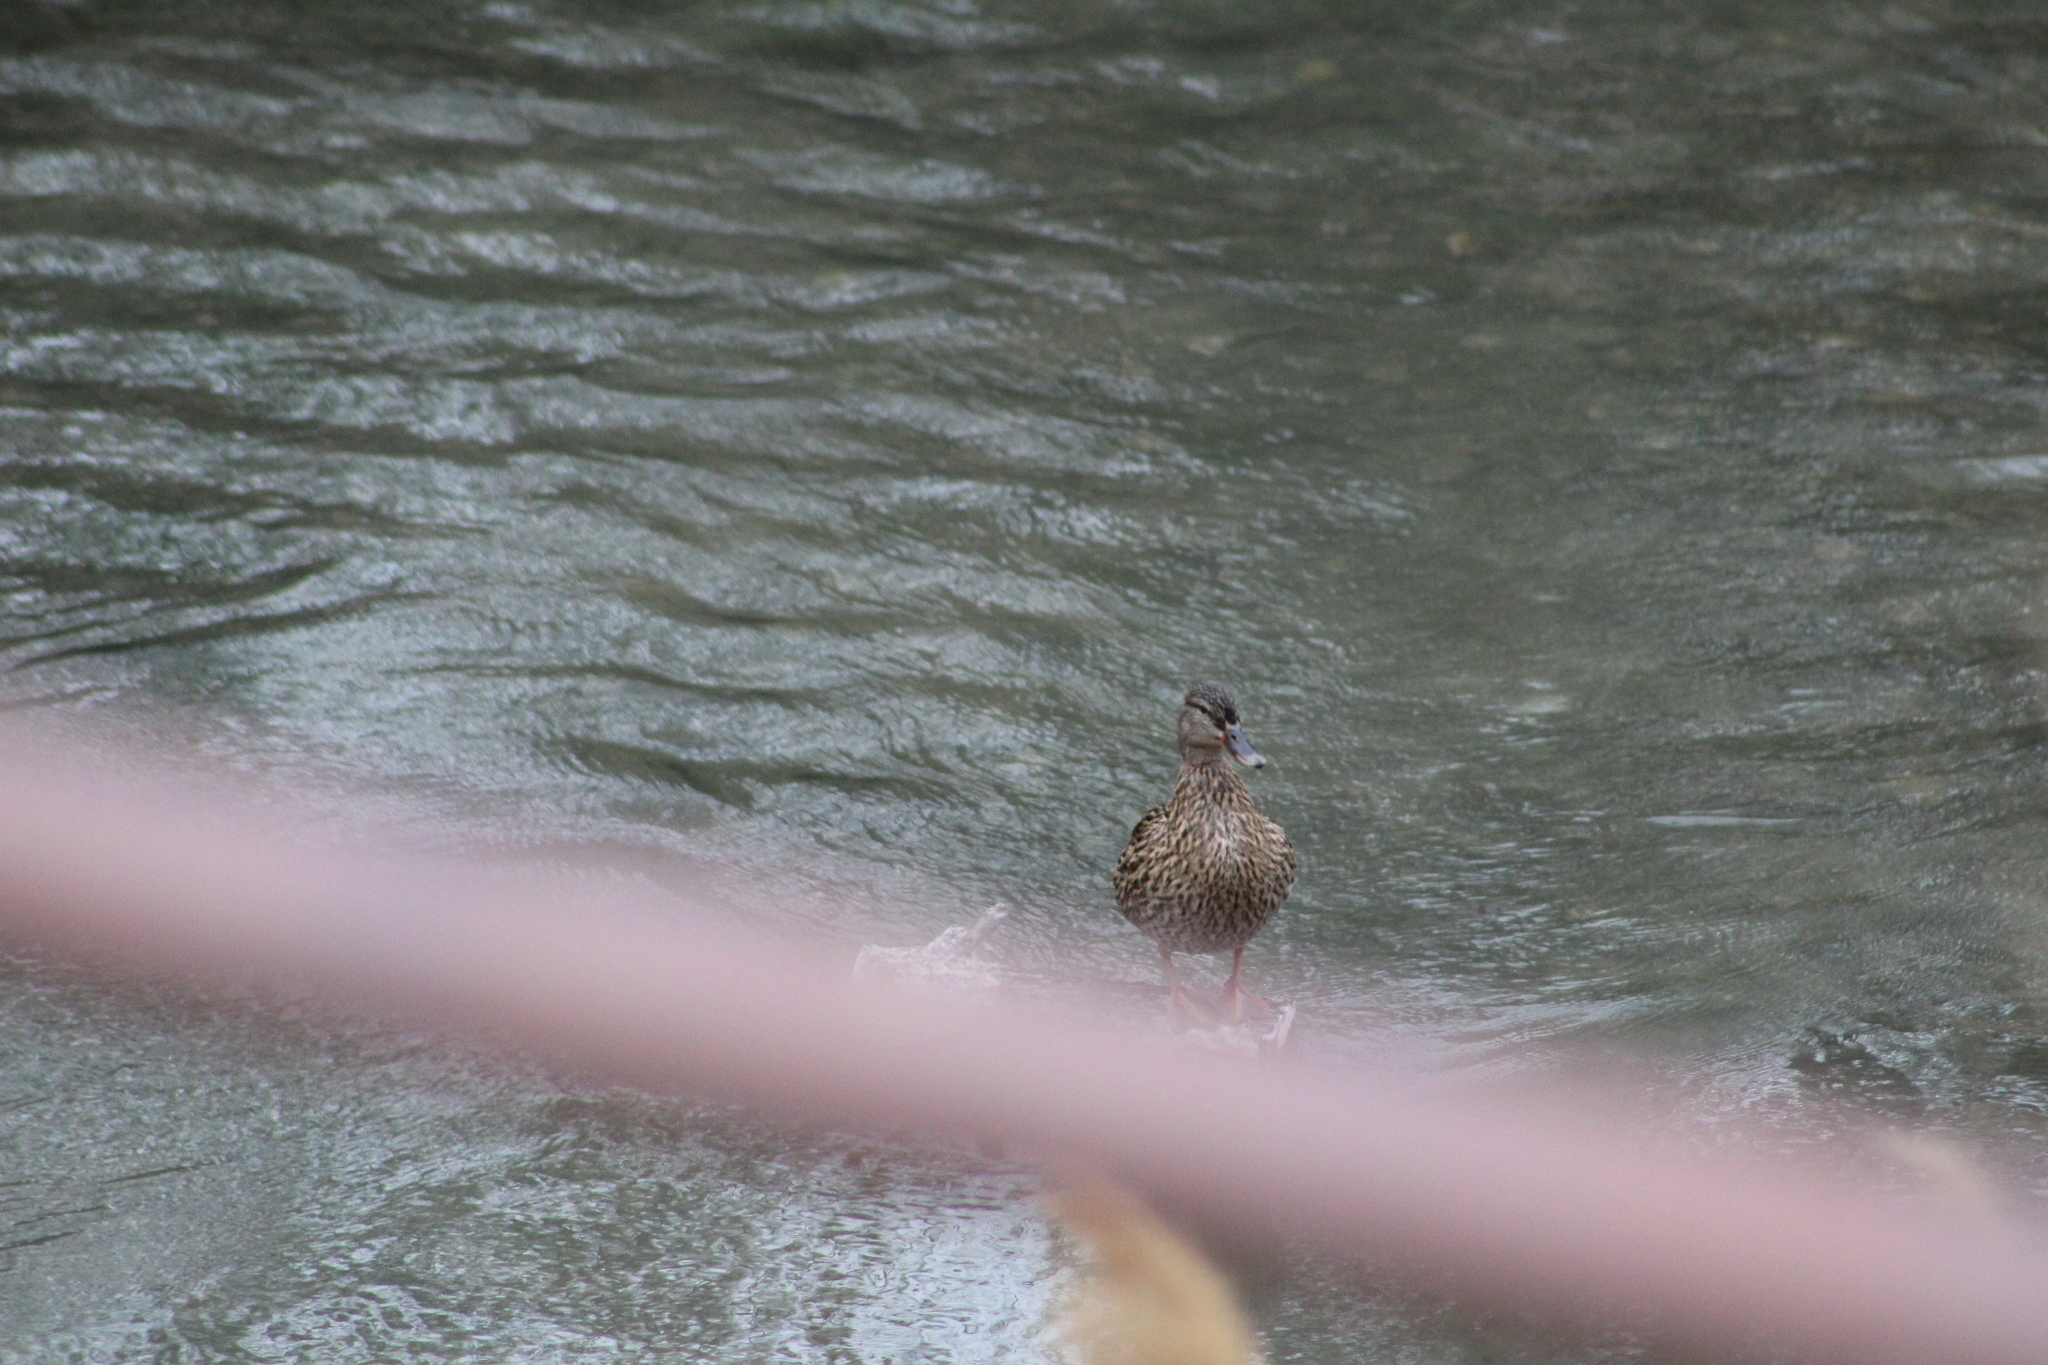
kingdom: Animalia
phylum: Chordata
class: Aves
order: Anseriformes
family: Anatidae
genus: Anas
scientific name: Anas platyrhynchos
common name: Mallard
